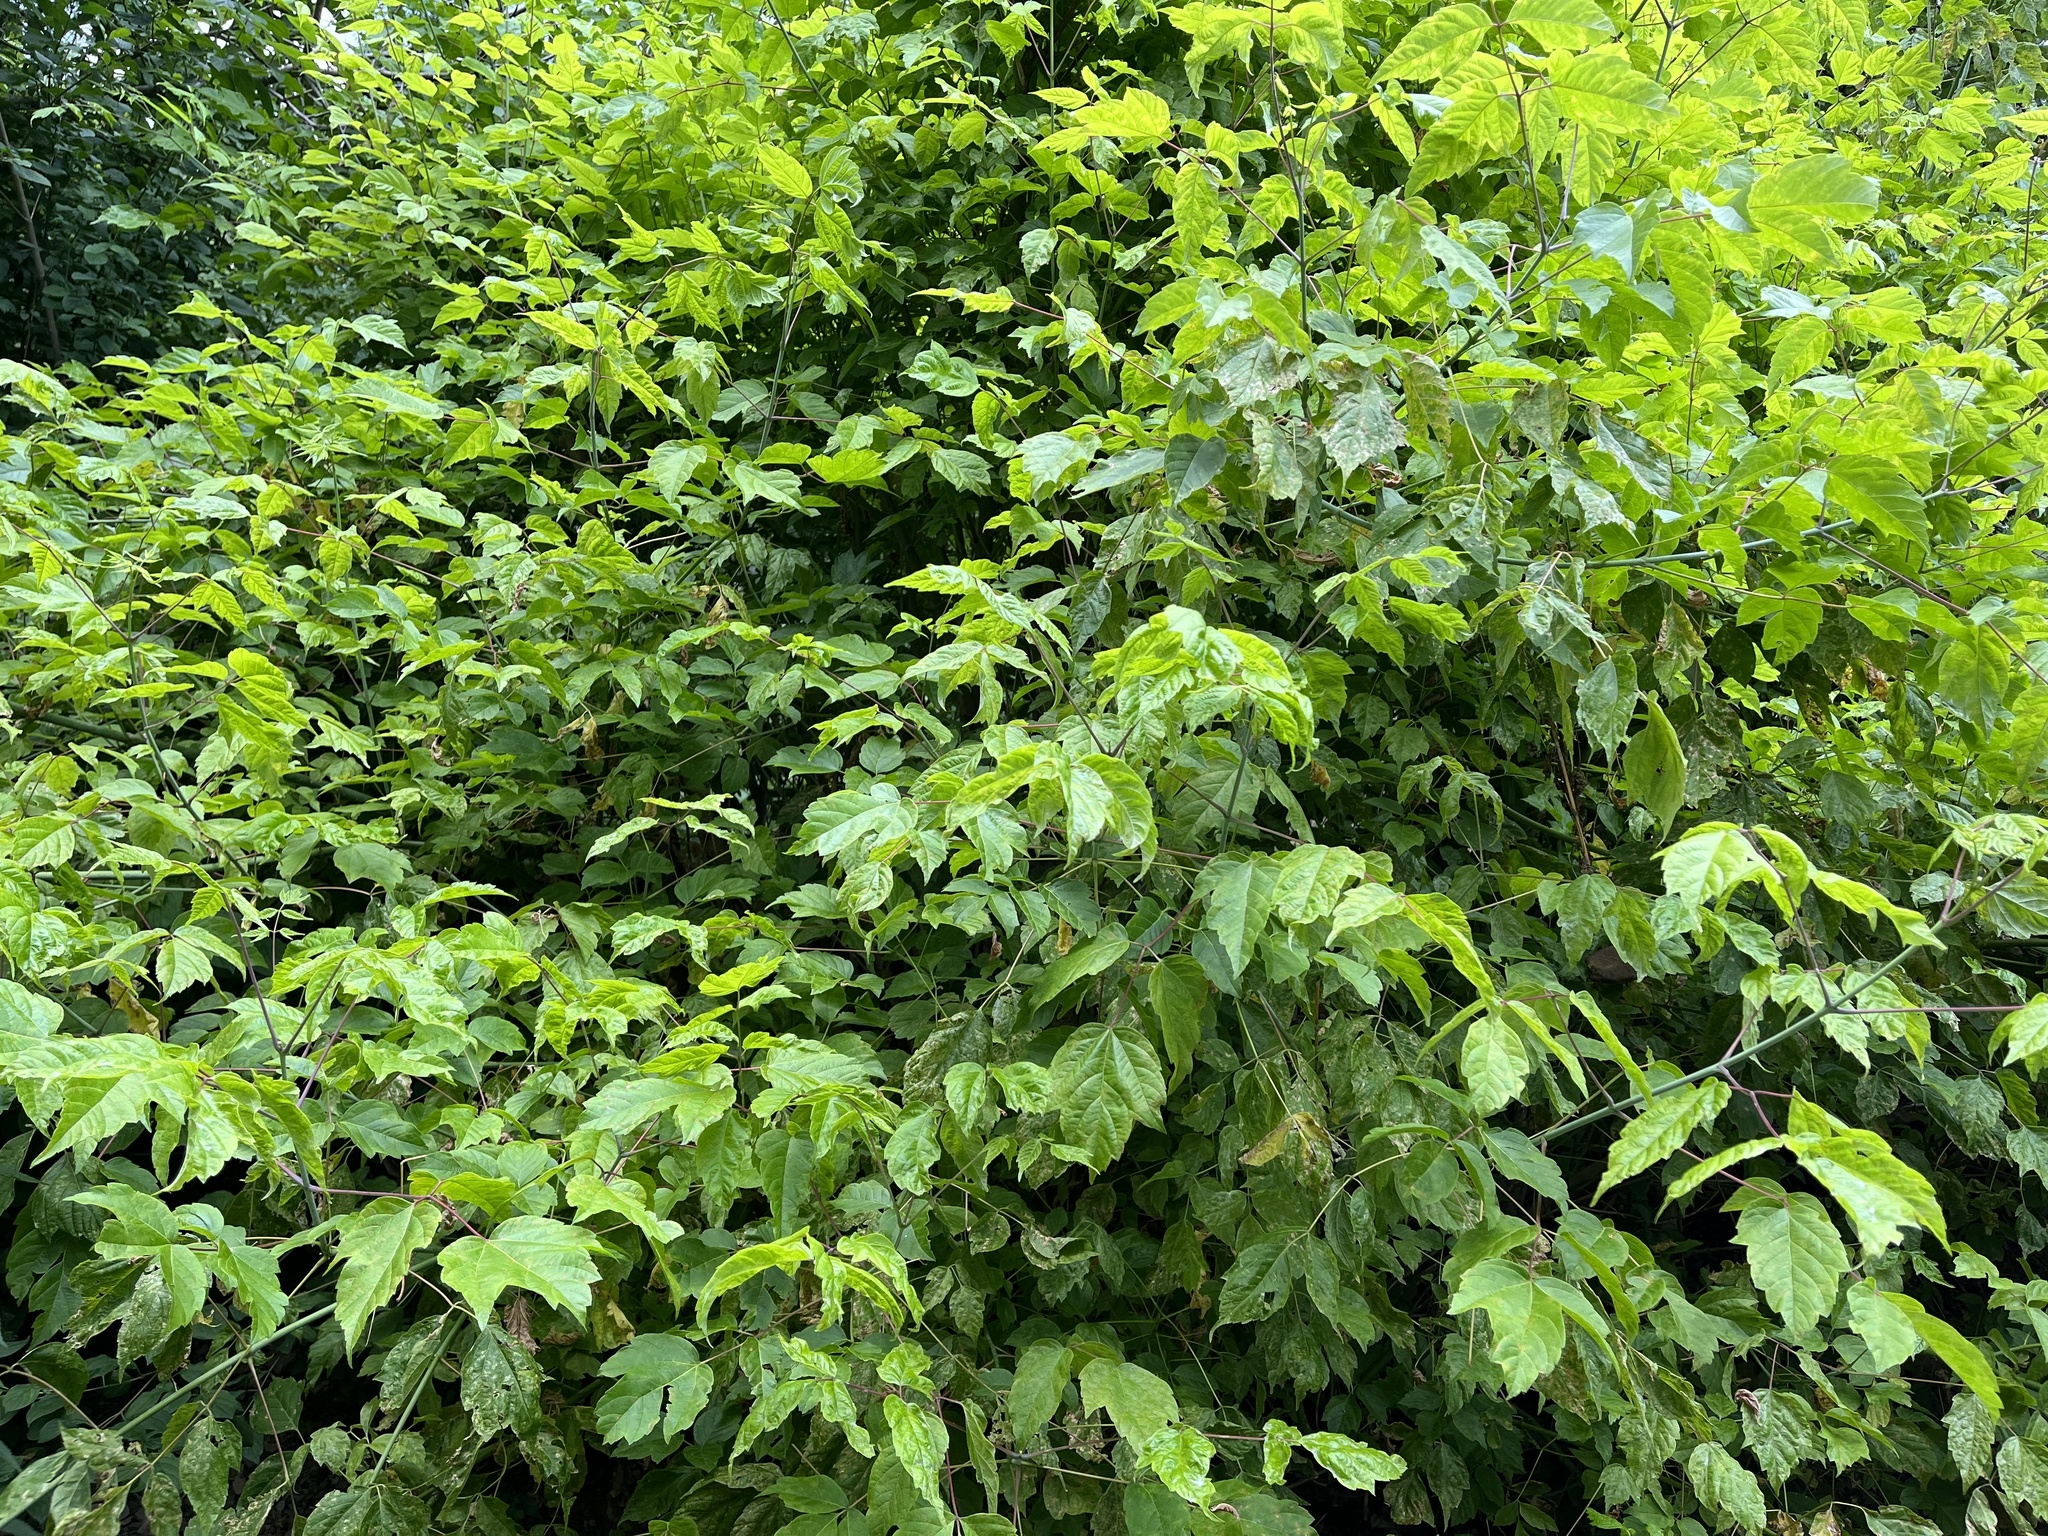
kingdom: Plantae
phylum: Tracheophyta
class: Magnoliopsida
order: Sapindales
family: Sapindaceae
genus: Acer
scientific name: Acer negundo
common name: Ashleaf maple
